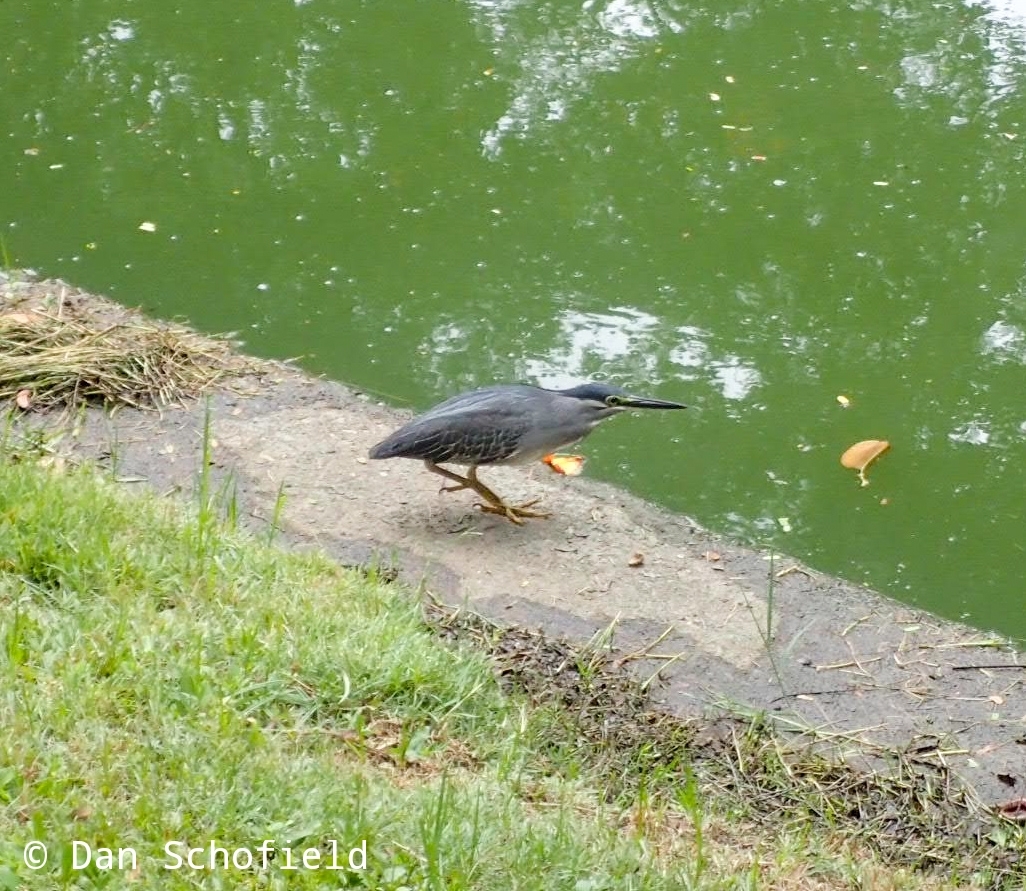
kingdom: Animalia
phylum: Chordata
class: Aves
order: Pelecaniformes
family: Ardeidae
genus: Butorides
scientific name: Butorides striata
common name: Striated heron
